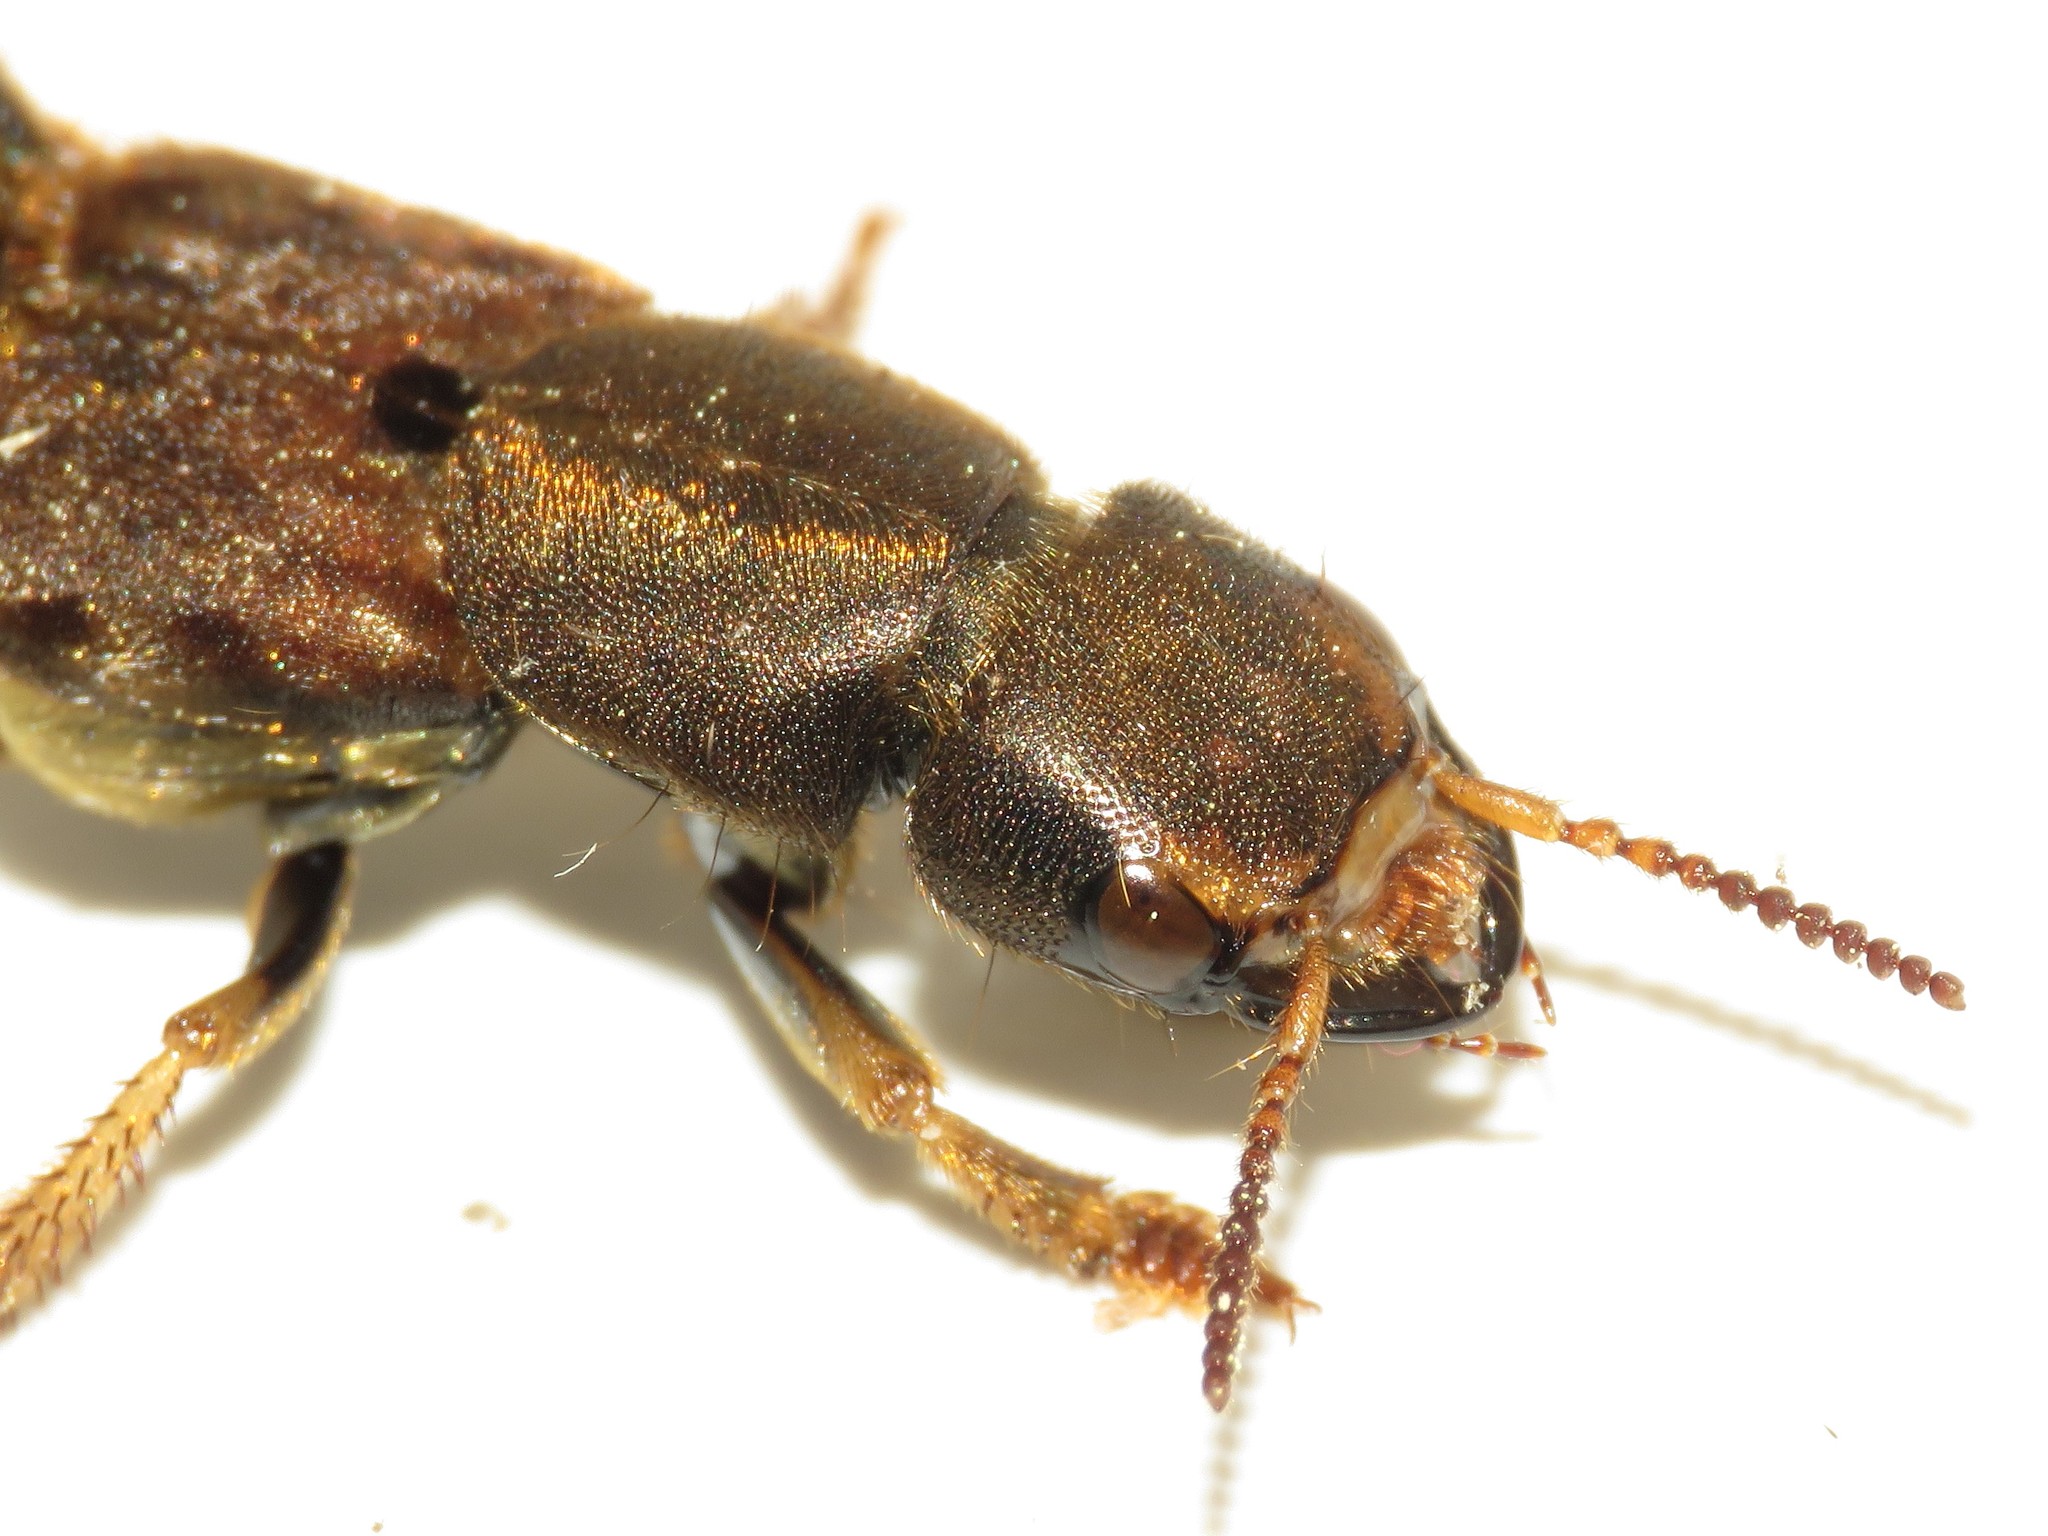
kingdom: Animalia
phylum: Arthropoda
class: Insecta
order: Coleoptera
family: Staphylinidae
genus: Platydracus
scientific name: Platydracus maculosus
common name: Brown rove beetle
